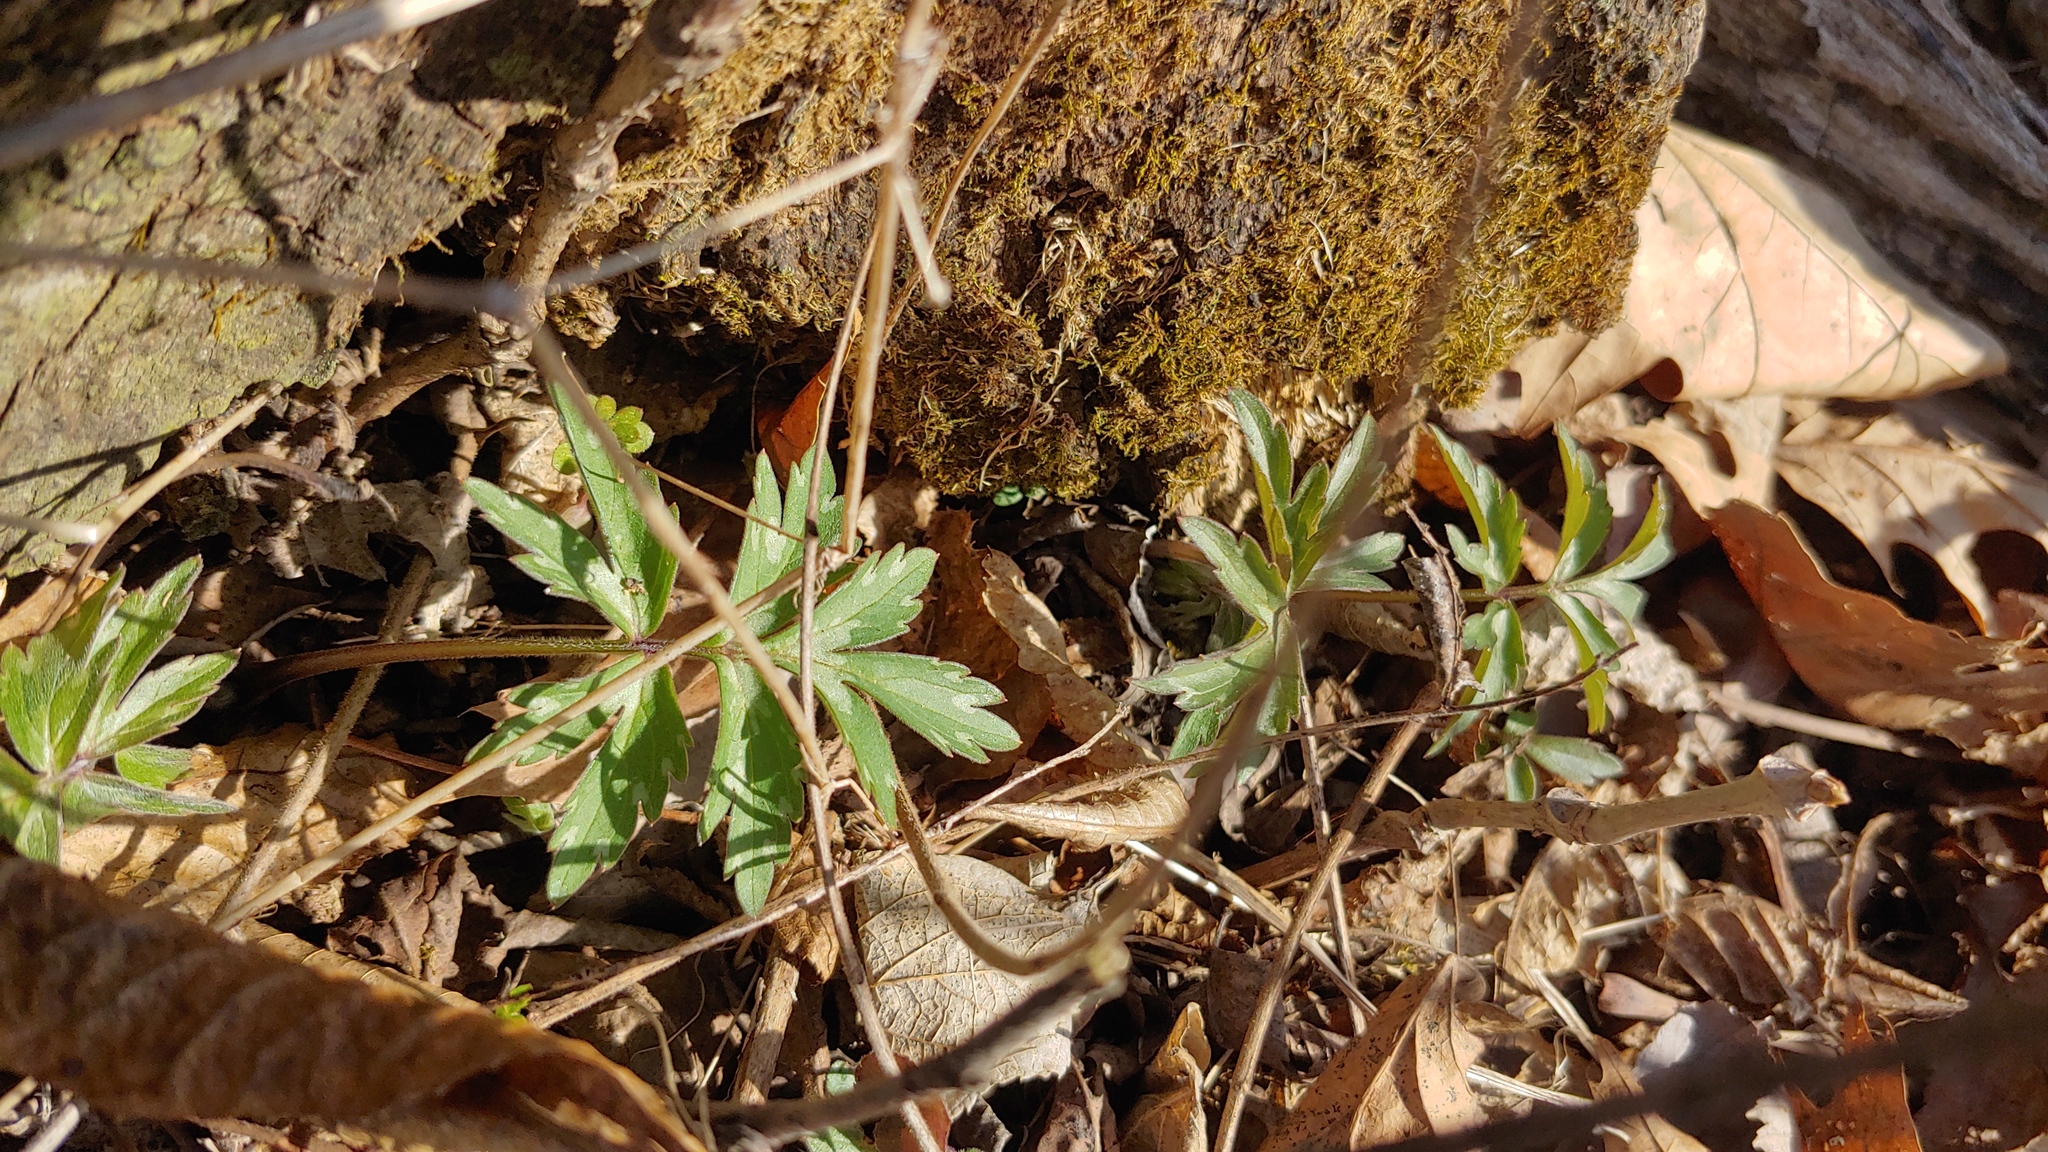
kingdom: Plantae
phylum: Tracheophyta
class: Magnoliopsida
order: Boraginales
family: Hydrophyllaceae
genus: Hydrophyllum
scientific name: Hydrophyllum virginianum
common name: Virginia waterleaf
